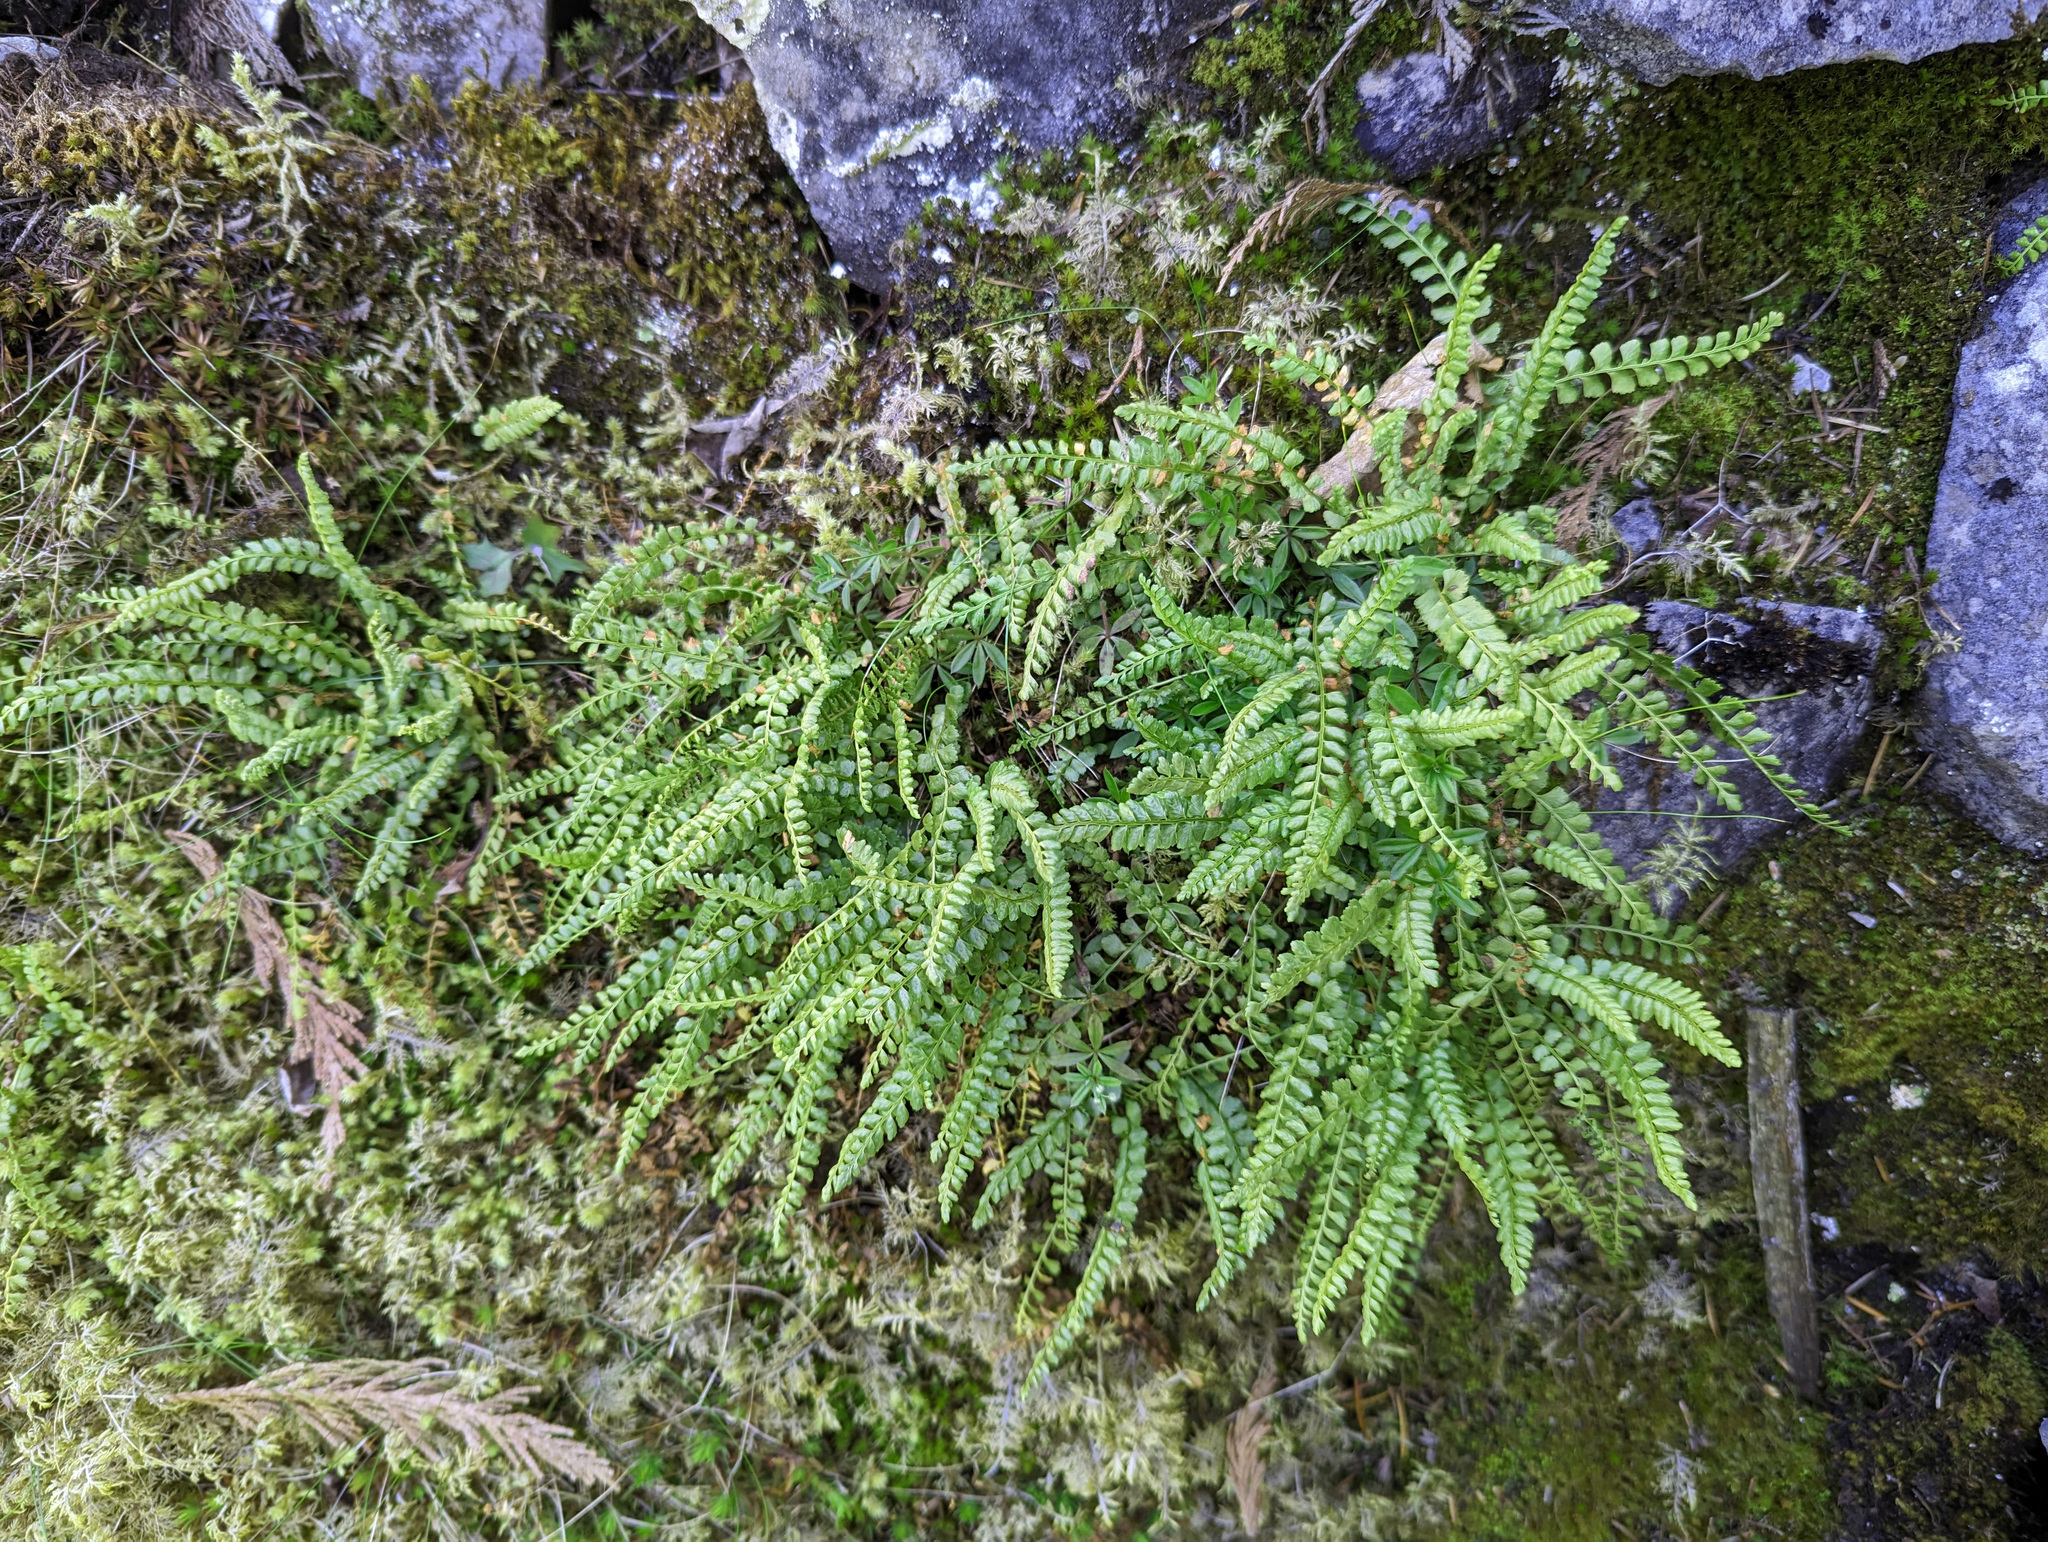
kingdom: Plantae
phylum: Tracheophyta
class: Polypodiopsida
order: Polypodiales
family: Aspleniaceae
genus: Asplenium
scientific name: Asplenium viride
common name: Green spleenwort
